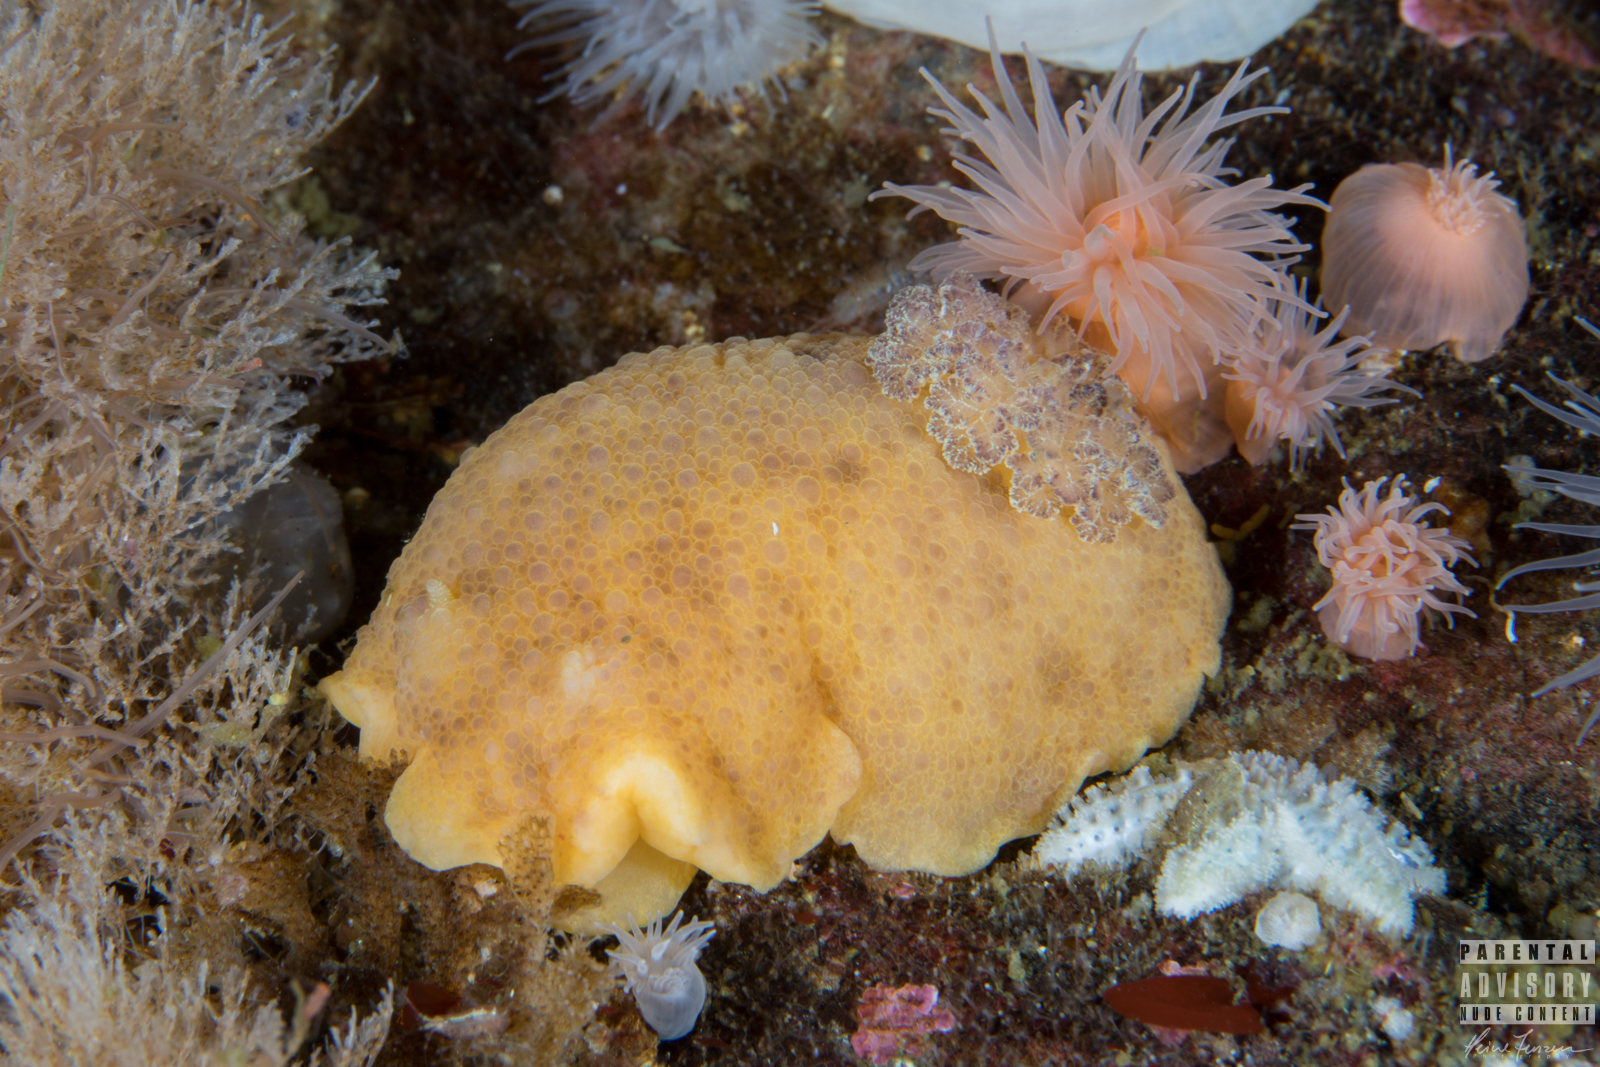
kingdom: Animalia
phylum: Mollusca
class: Gastropoda
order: Nudibranchia
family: Dorididae
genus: Doris
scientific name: Doris pseudoargus
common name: Sea lemon
